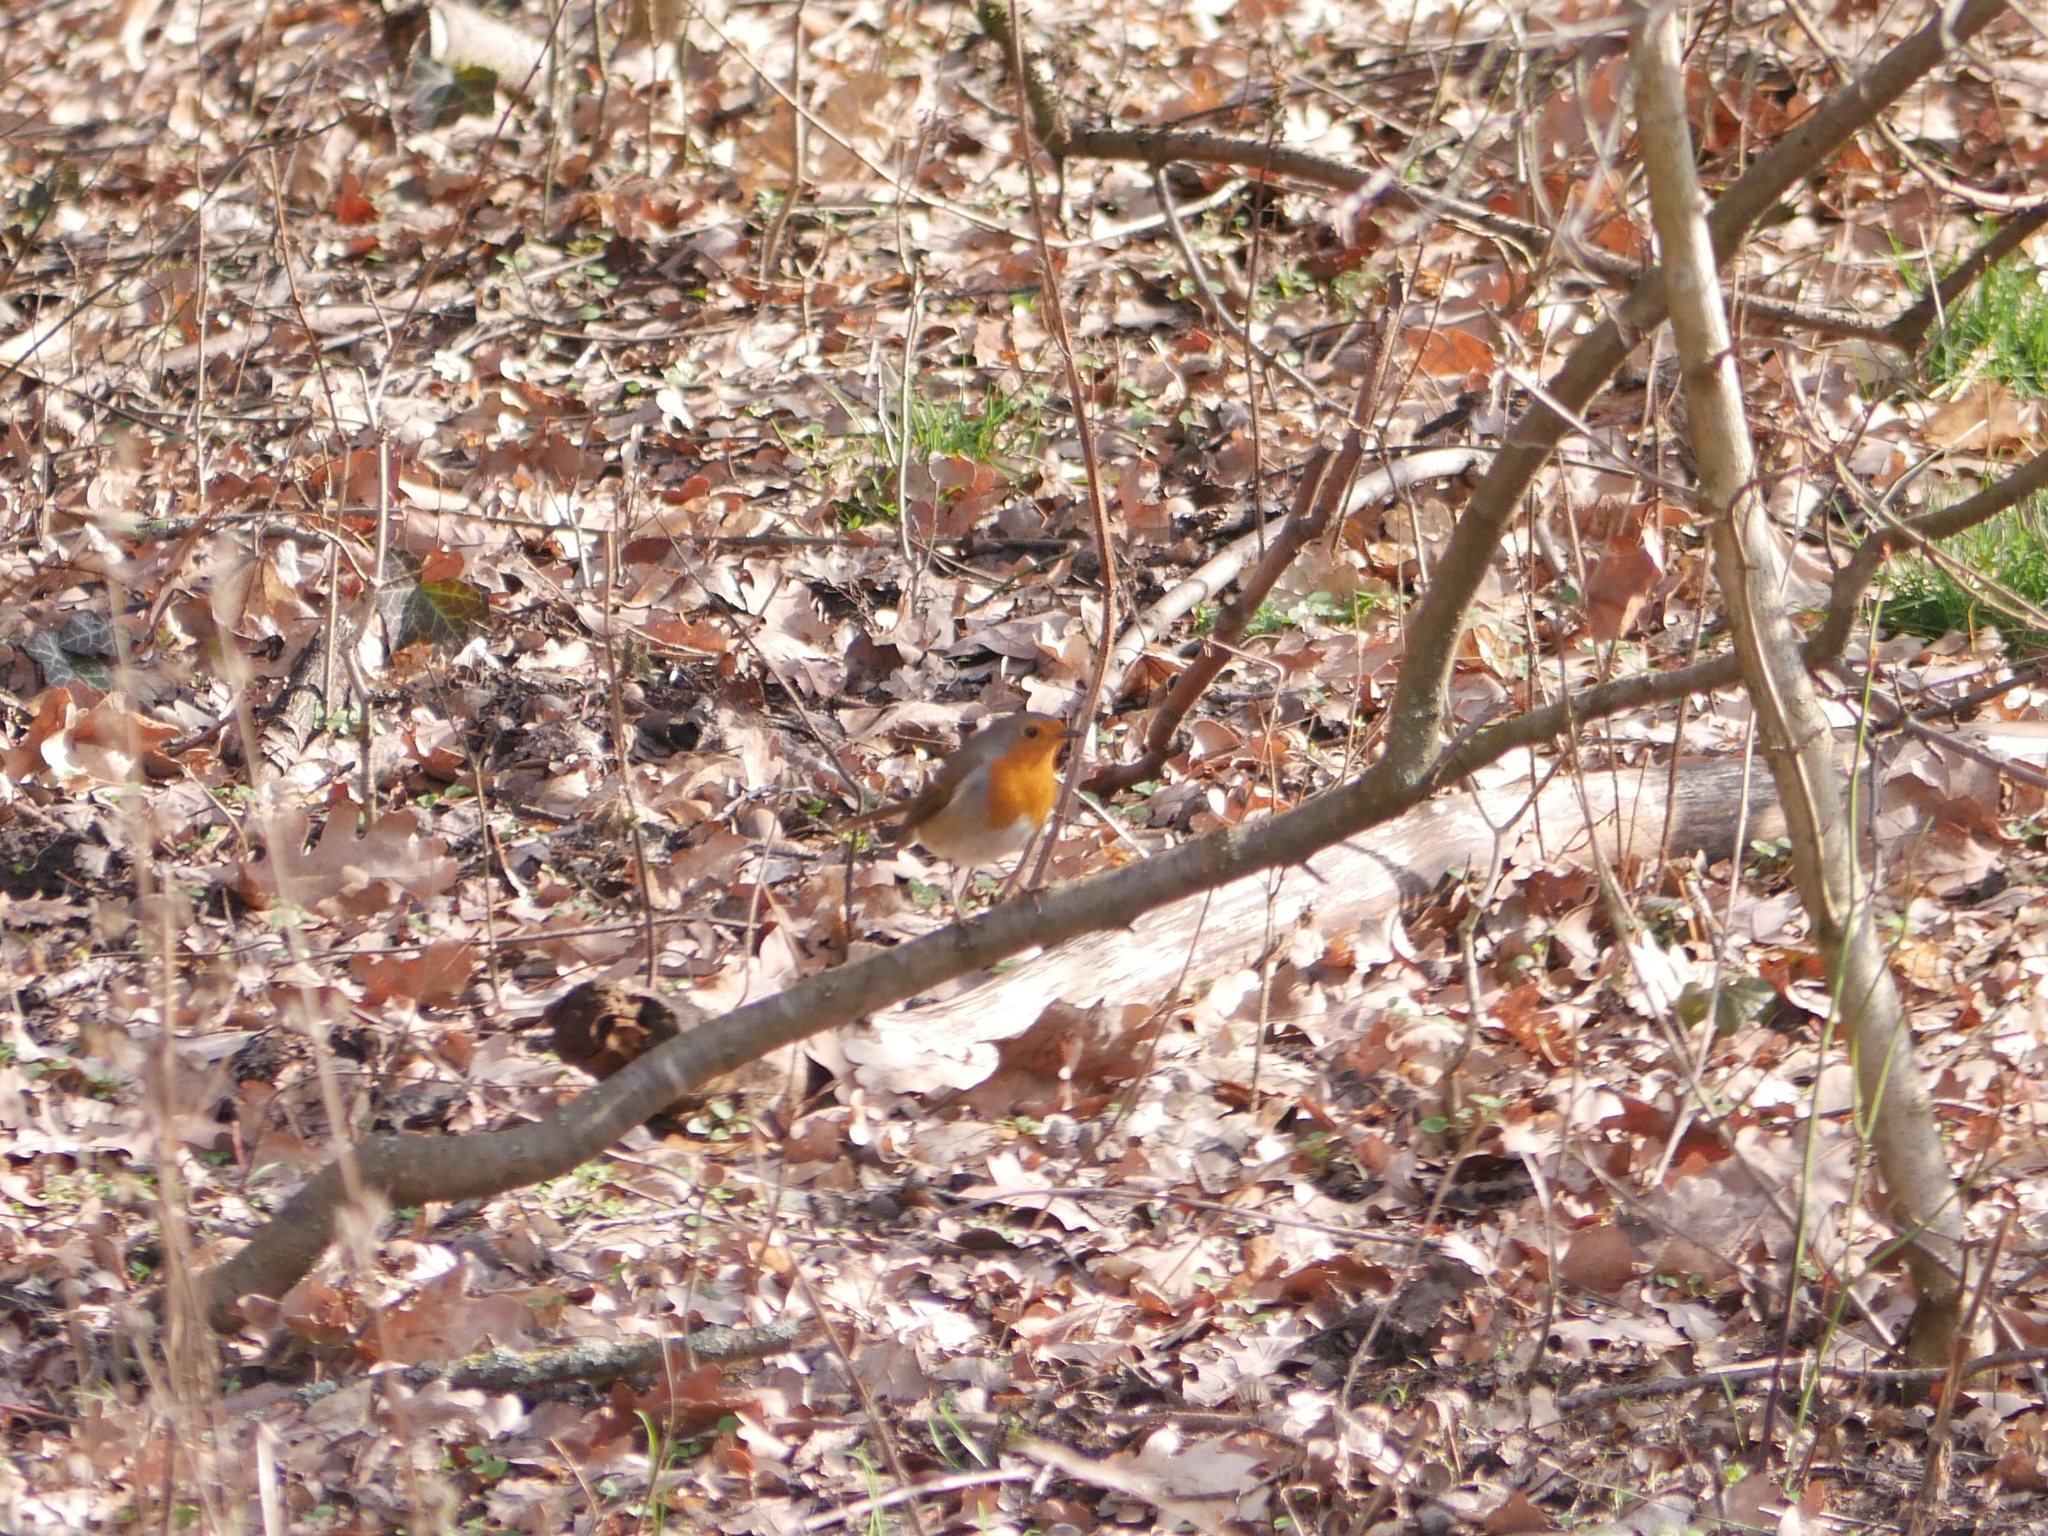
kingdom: Animalia
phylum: Chordata
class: Aves
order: Passeriformes
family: Muscicapidae
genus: Erithacus
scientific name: Erithacus rubecula
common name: European robin
